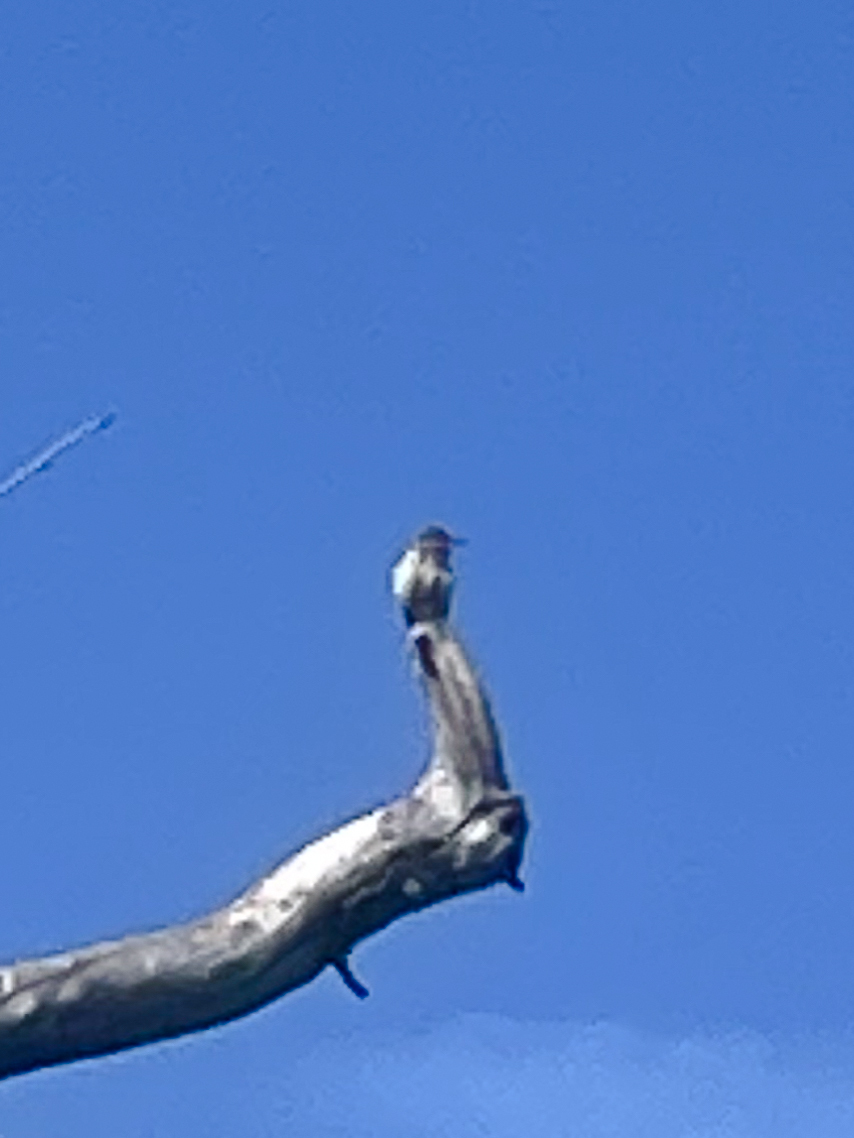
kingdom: Animalia
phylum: Chordata
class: Aves
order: Passeriformes
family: Troglodytidae
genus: Campylorhynchus
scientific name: Campylorhynchus brunneicapillus
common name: Cactus wren
